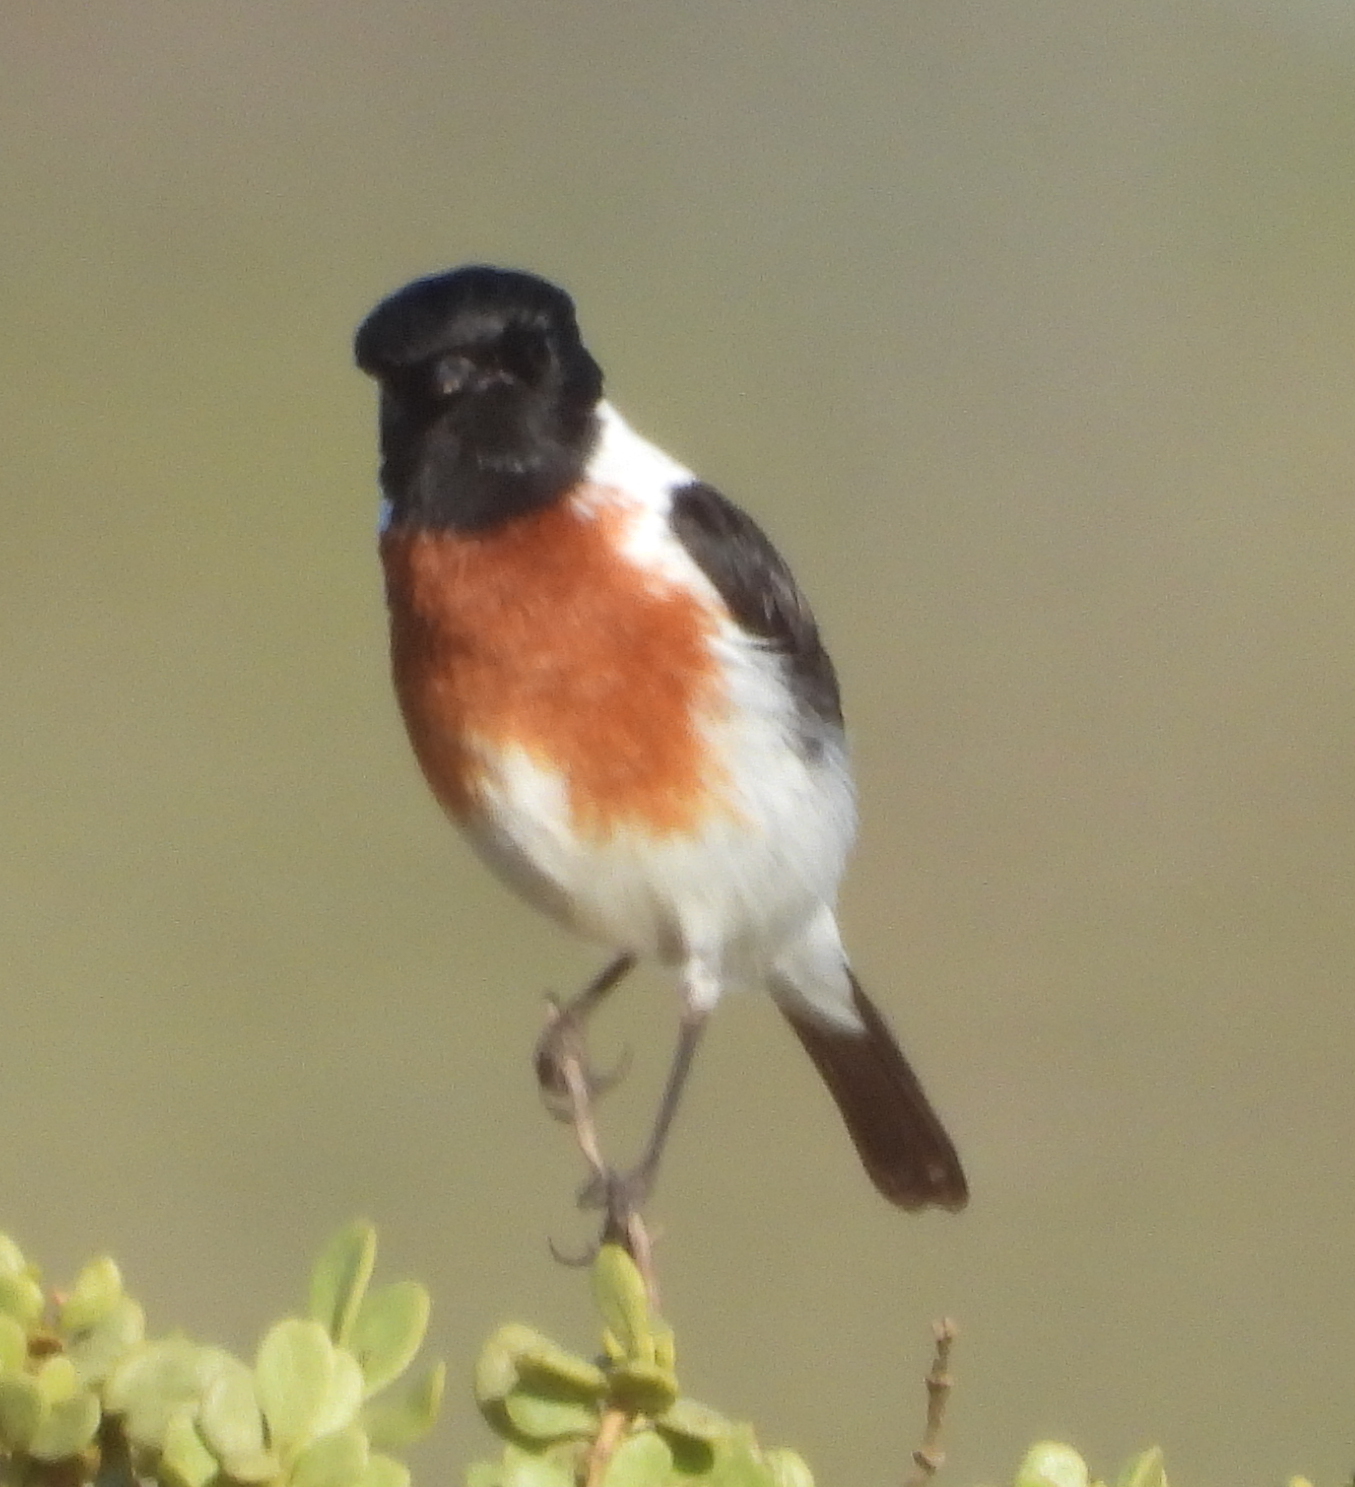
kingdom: Animalia
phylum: Chordata
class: Aves
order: Passeriformes
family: Muscicapidae
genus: Saxicola
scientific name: Saxicola torquatus
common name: African stonechat
